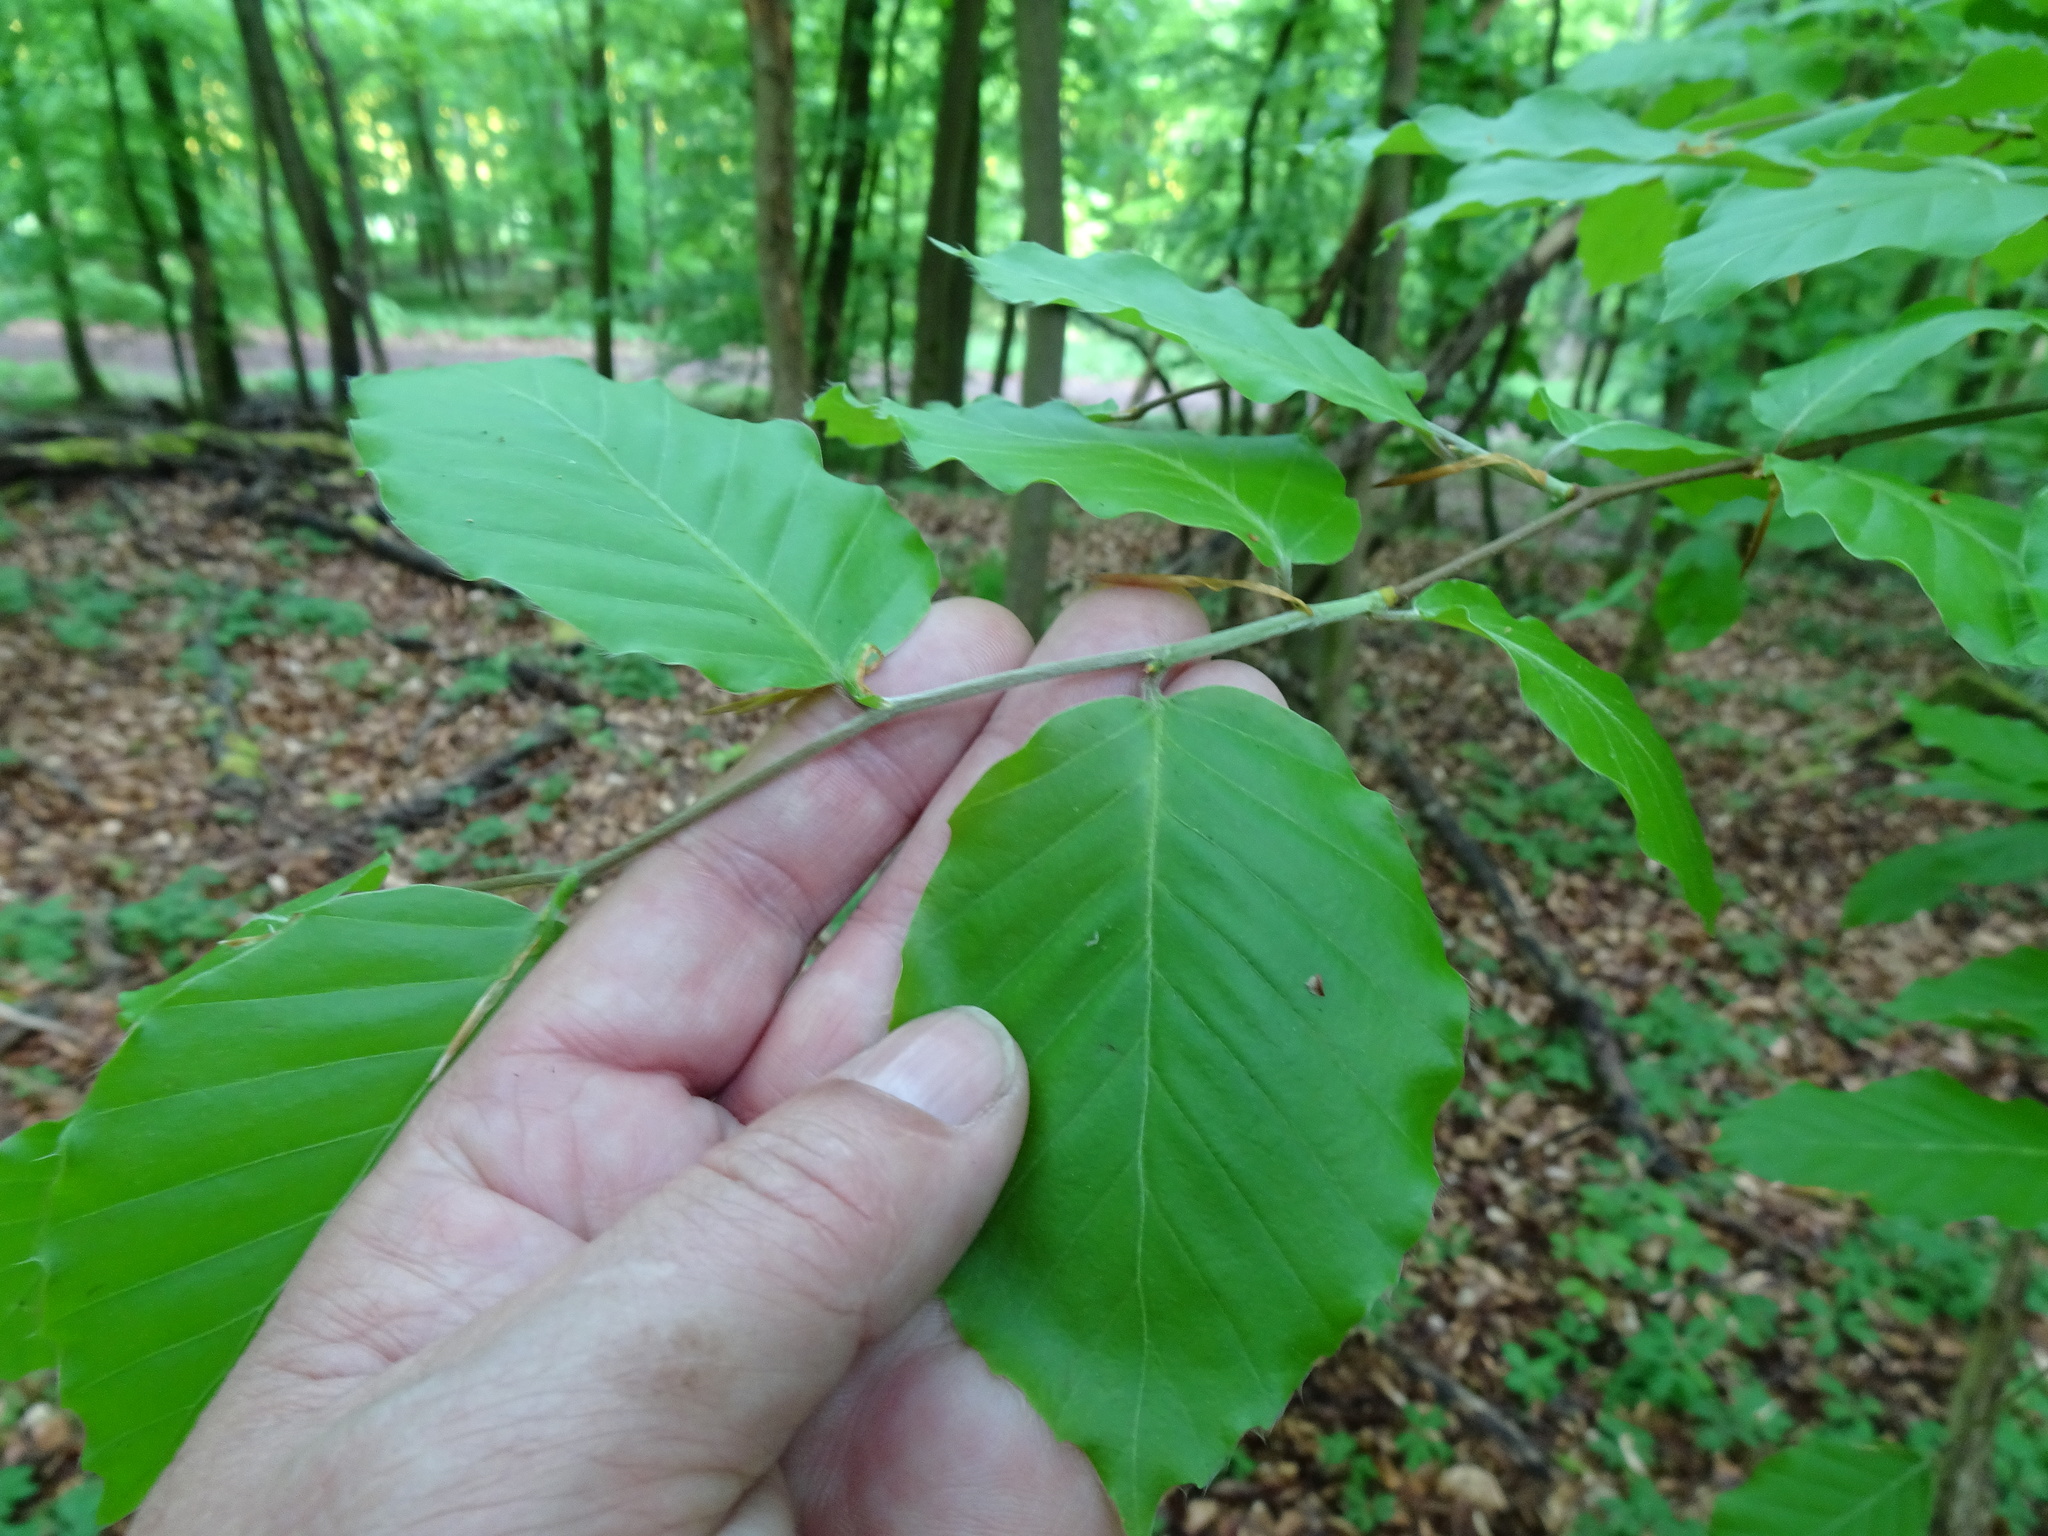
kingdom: Plantae
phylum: Tracheophyta
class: Magnoliopsida
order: Fagales
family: Fagaceae
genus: Fagus
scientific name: Fagus sylvatica
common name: Beech
